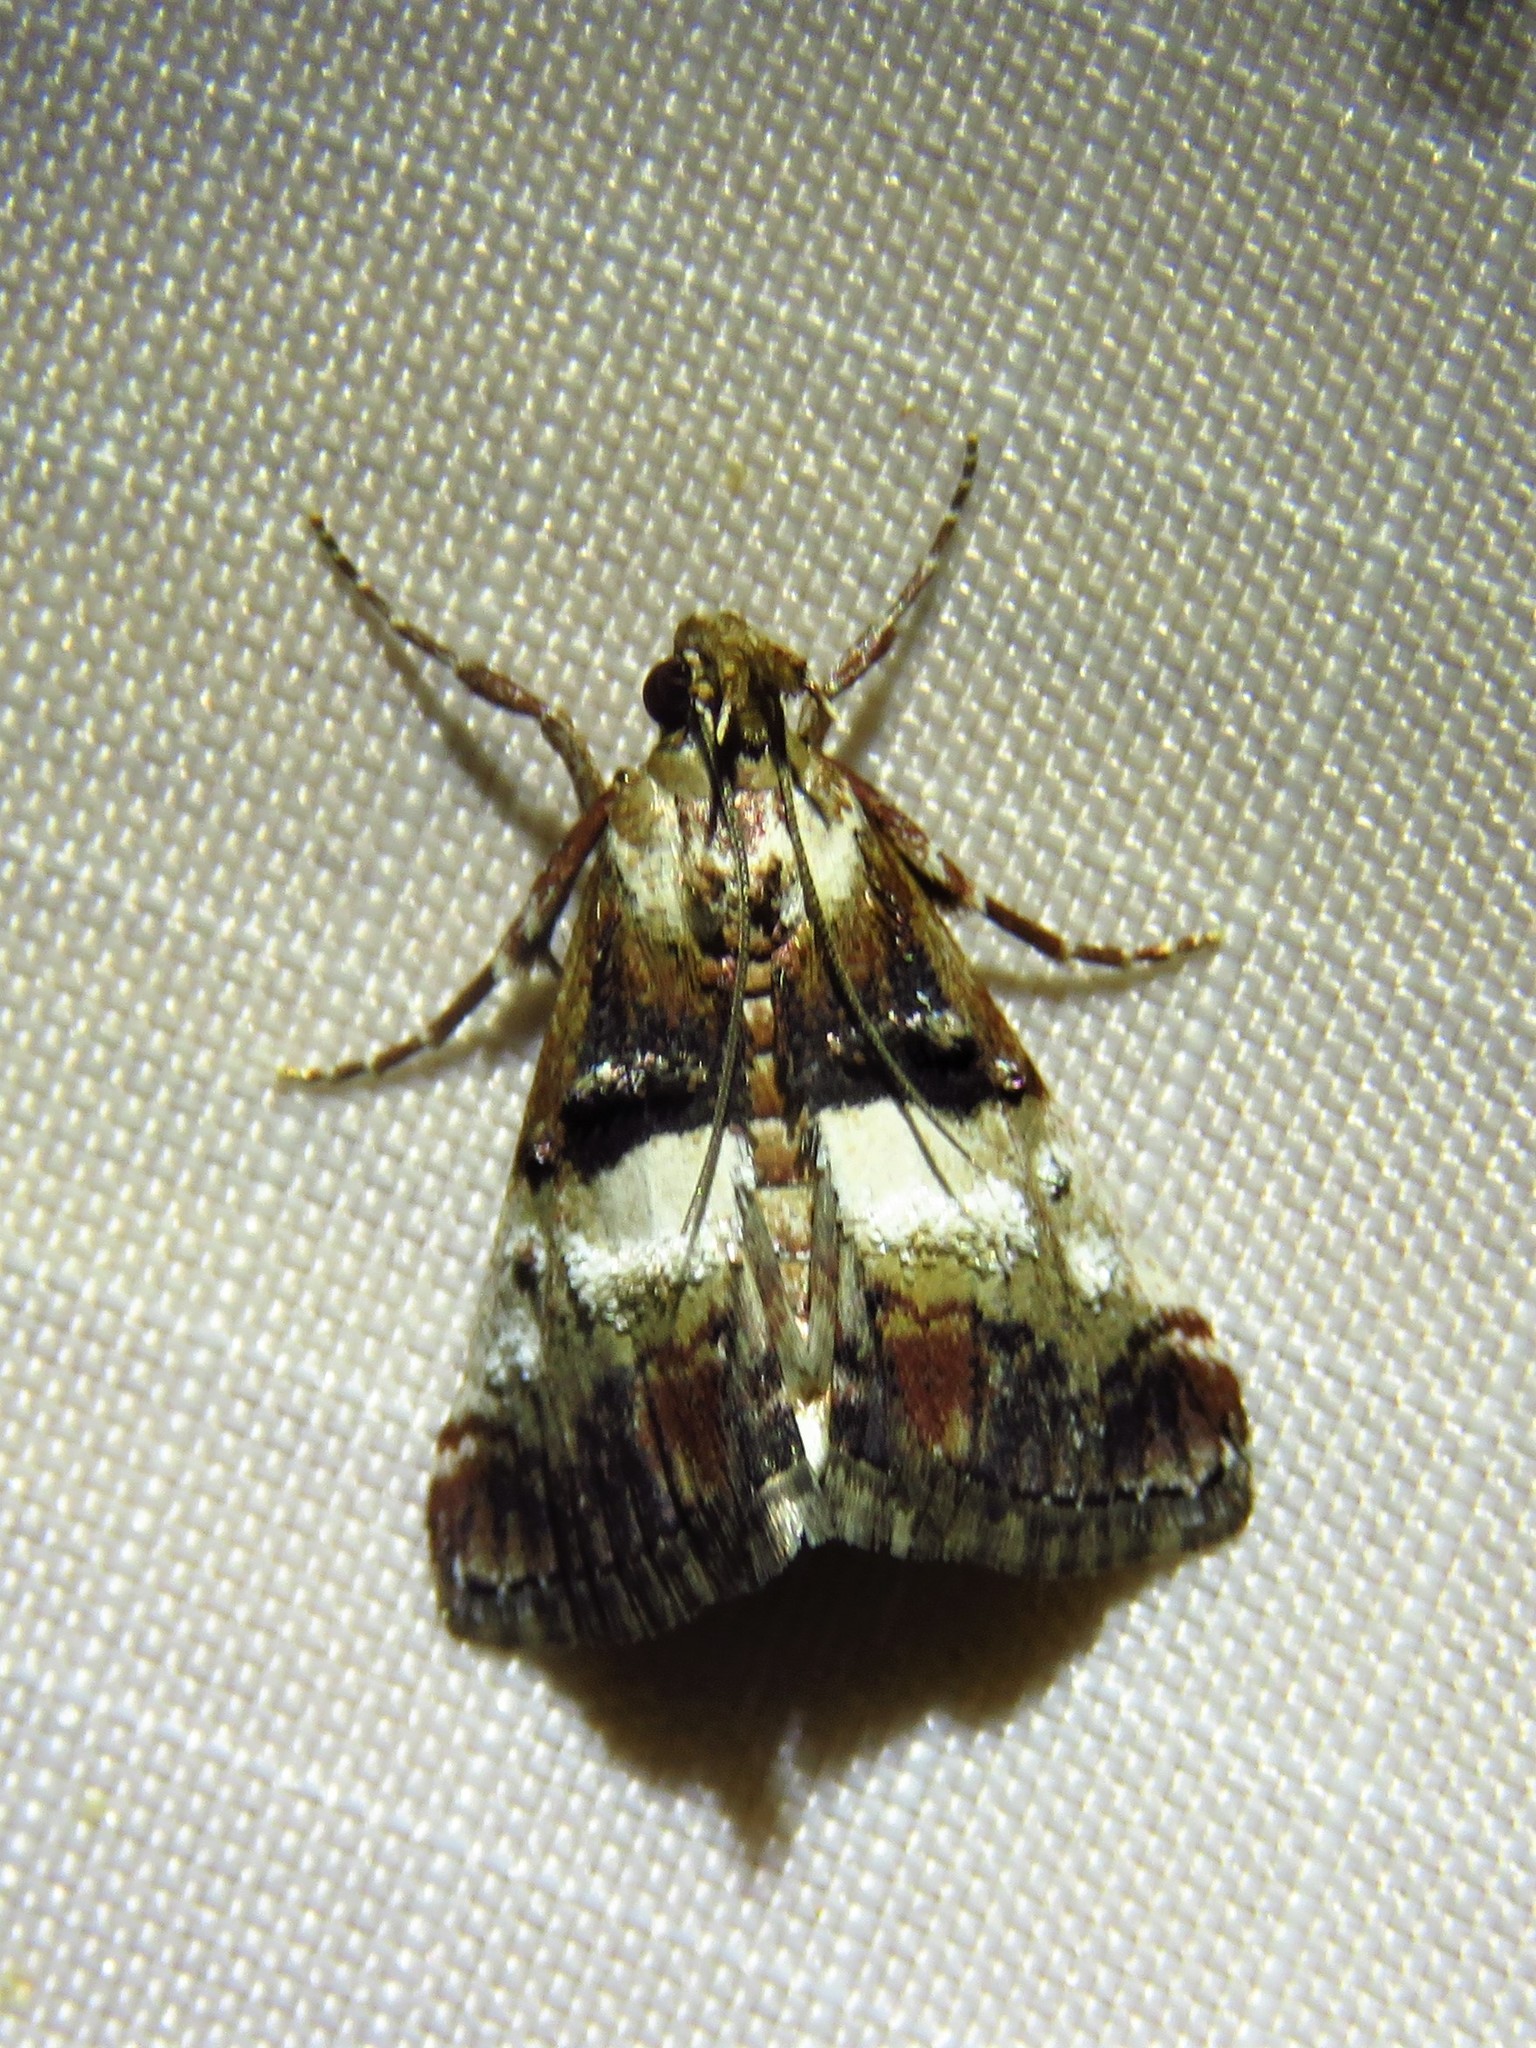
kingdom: Animalia
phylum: Arthropoda
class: Insecta
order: Lepidoptera
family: Pyralidae
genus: Macalla
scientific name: Macalla zelleri
